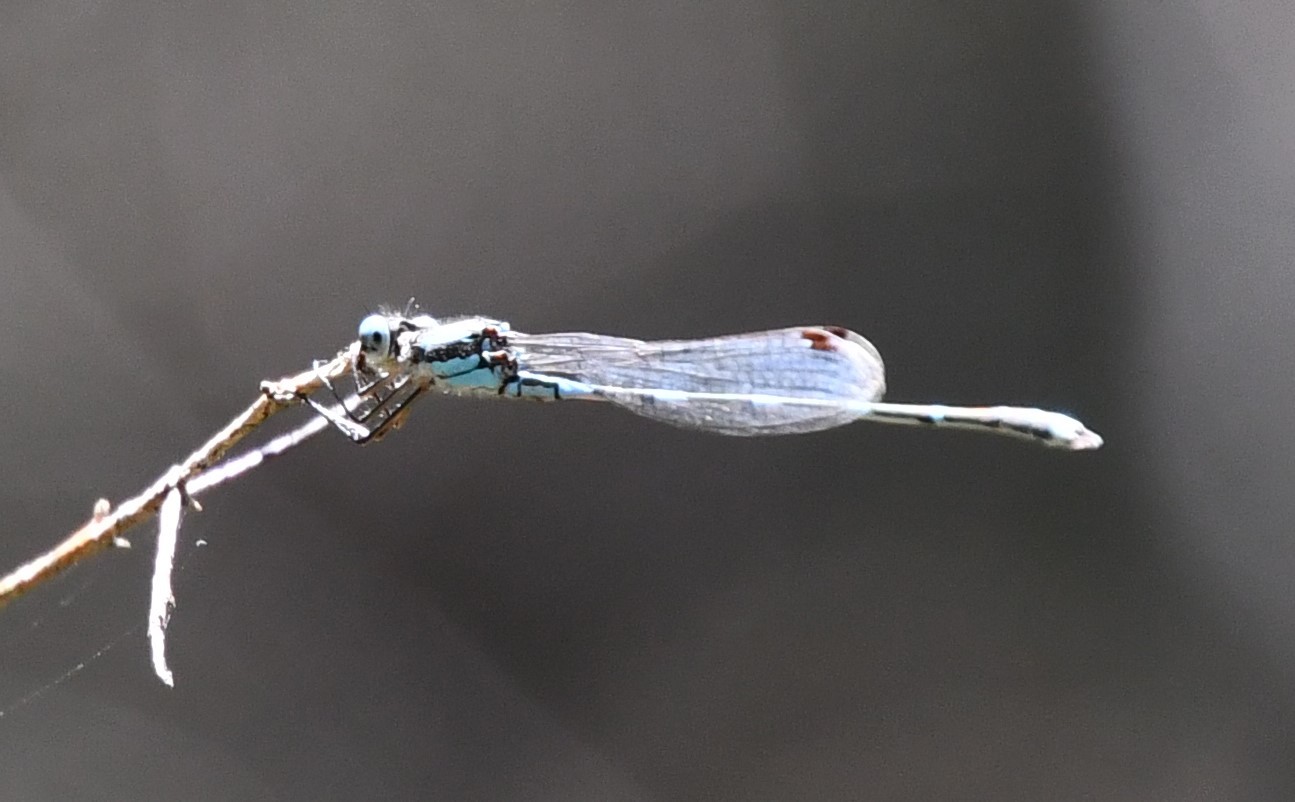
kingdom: Animalia
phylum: Arthropoda
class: Insecta
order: Odonata
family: Lestidae
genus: Austrolestes
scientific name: Austrolestes leda
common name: Wandering ringtail
